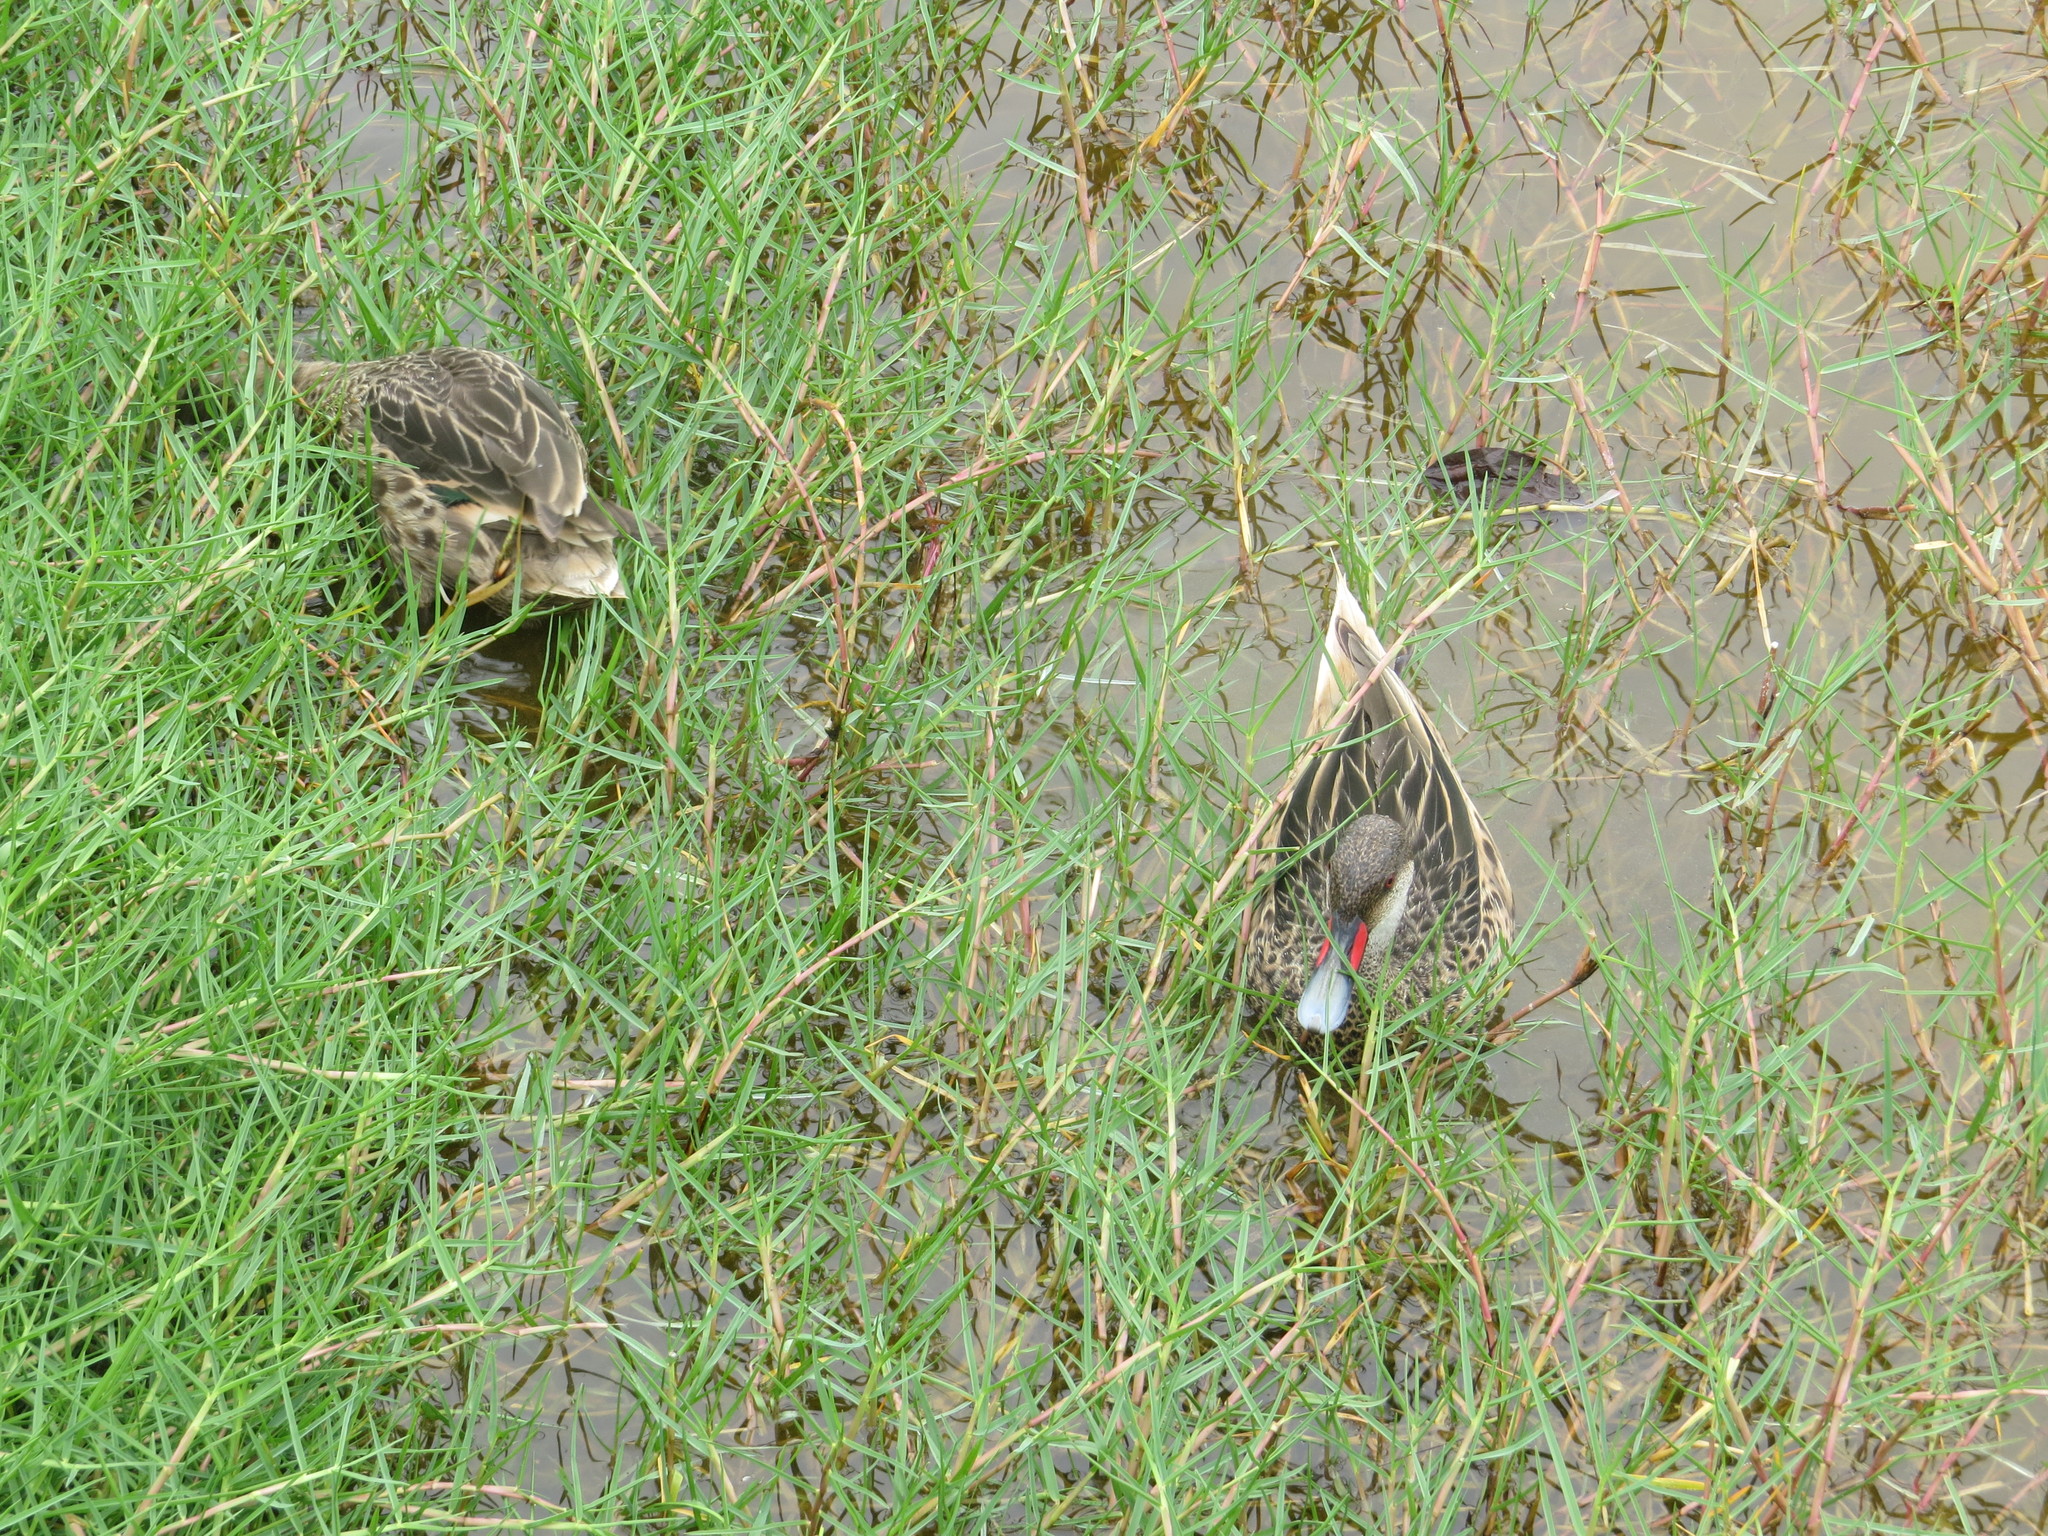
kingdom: Animalia
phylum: Chordata
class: Aves
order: Anseriformes
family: Anatidae
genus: Anas
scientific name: Anas bahamensis
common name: White-cheeked pintail
